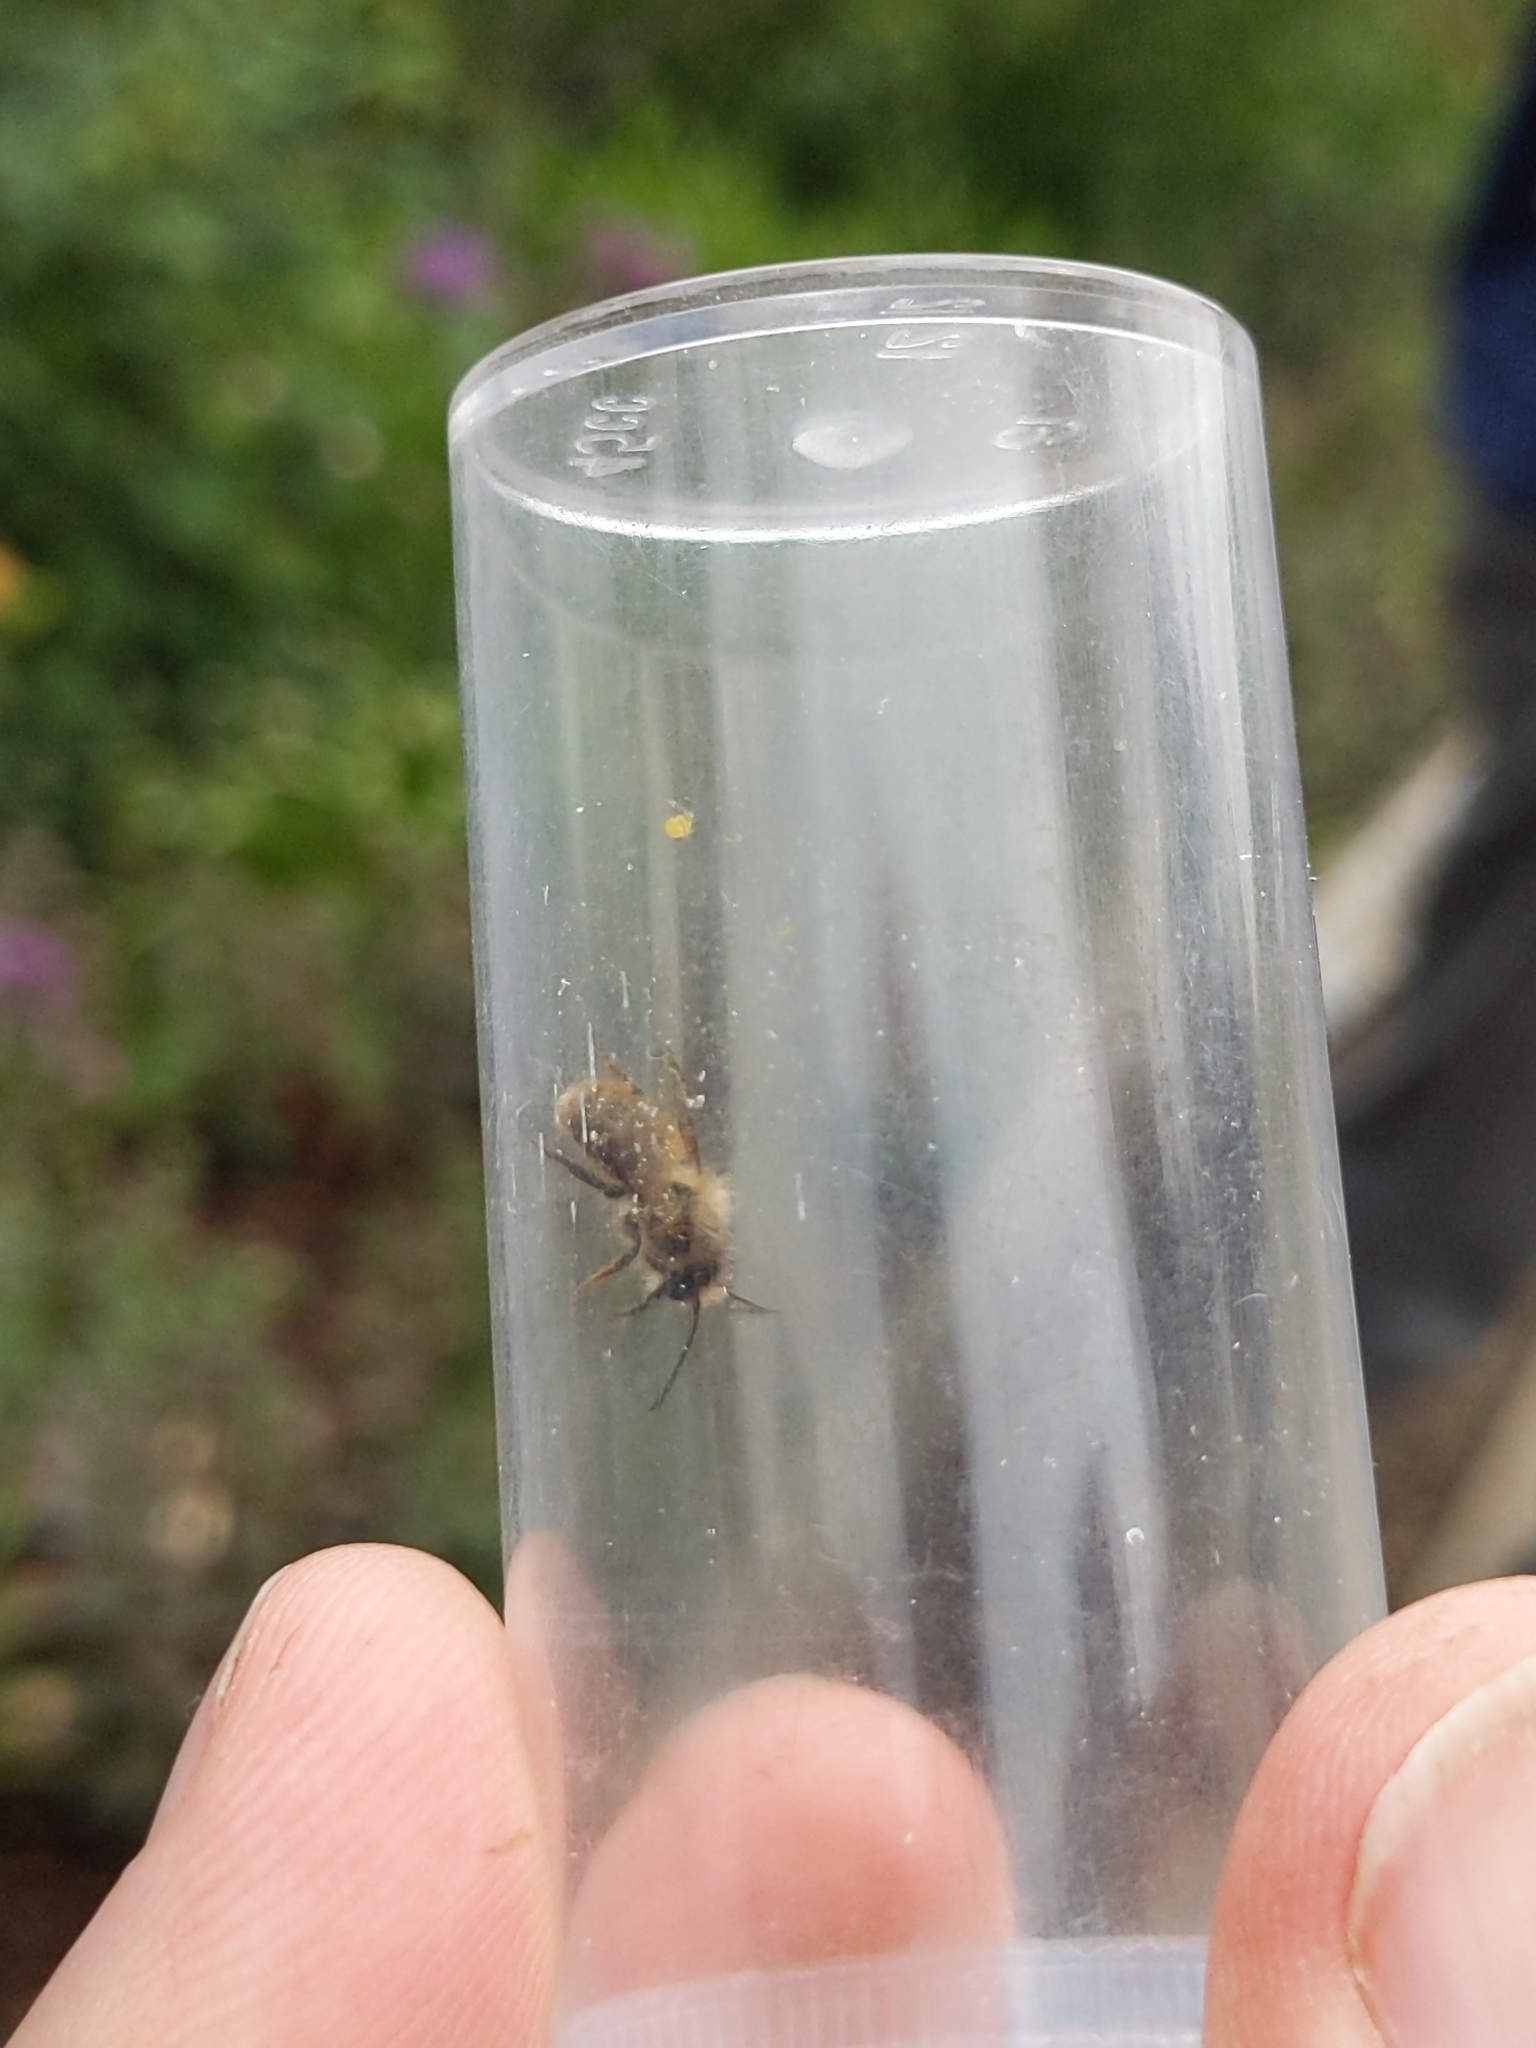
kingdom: Animalia
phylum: Arthropoda
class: Insecta
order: Hymenoptera
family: Megachilidae
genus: Osmia
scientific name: Osmia bicornis
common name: Red mason bee
